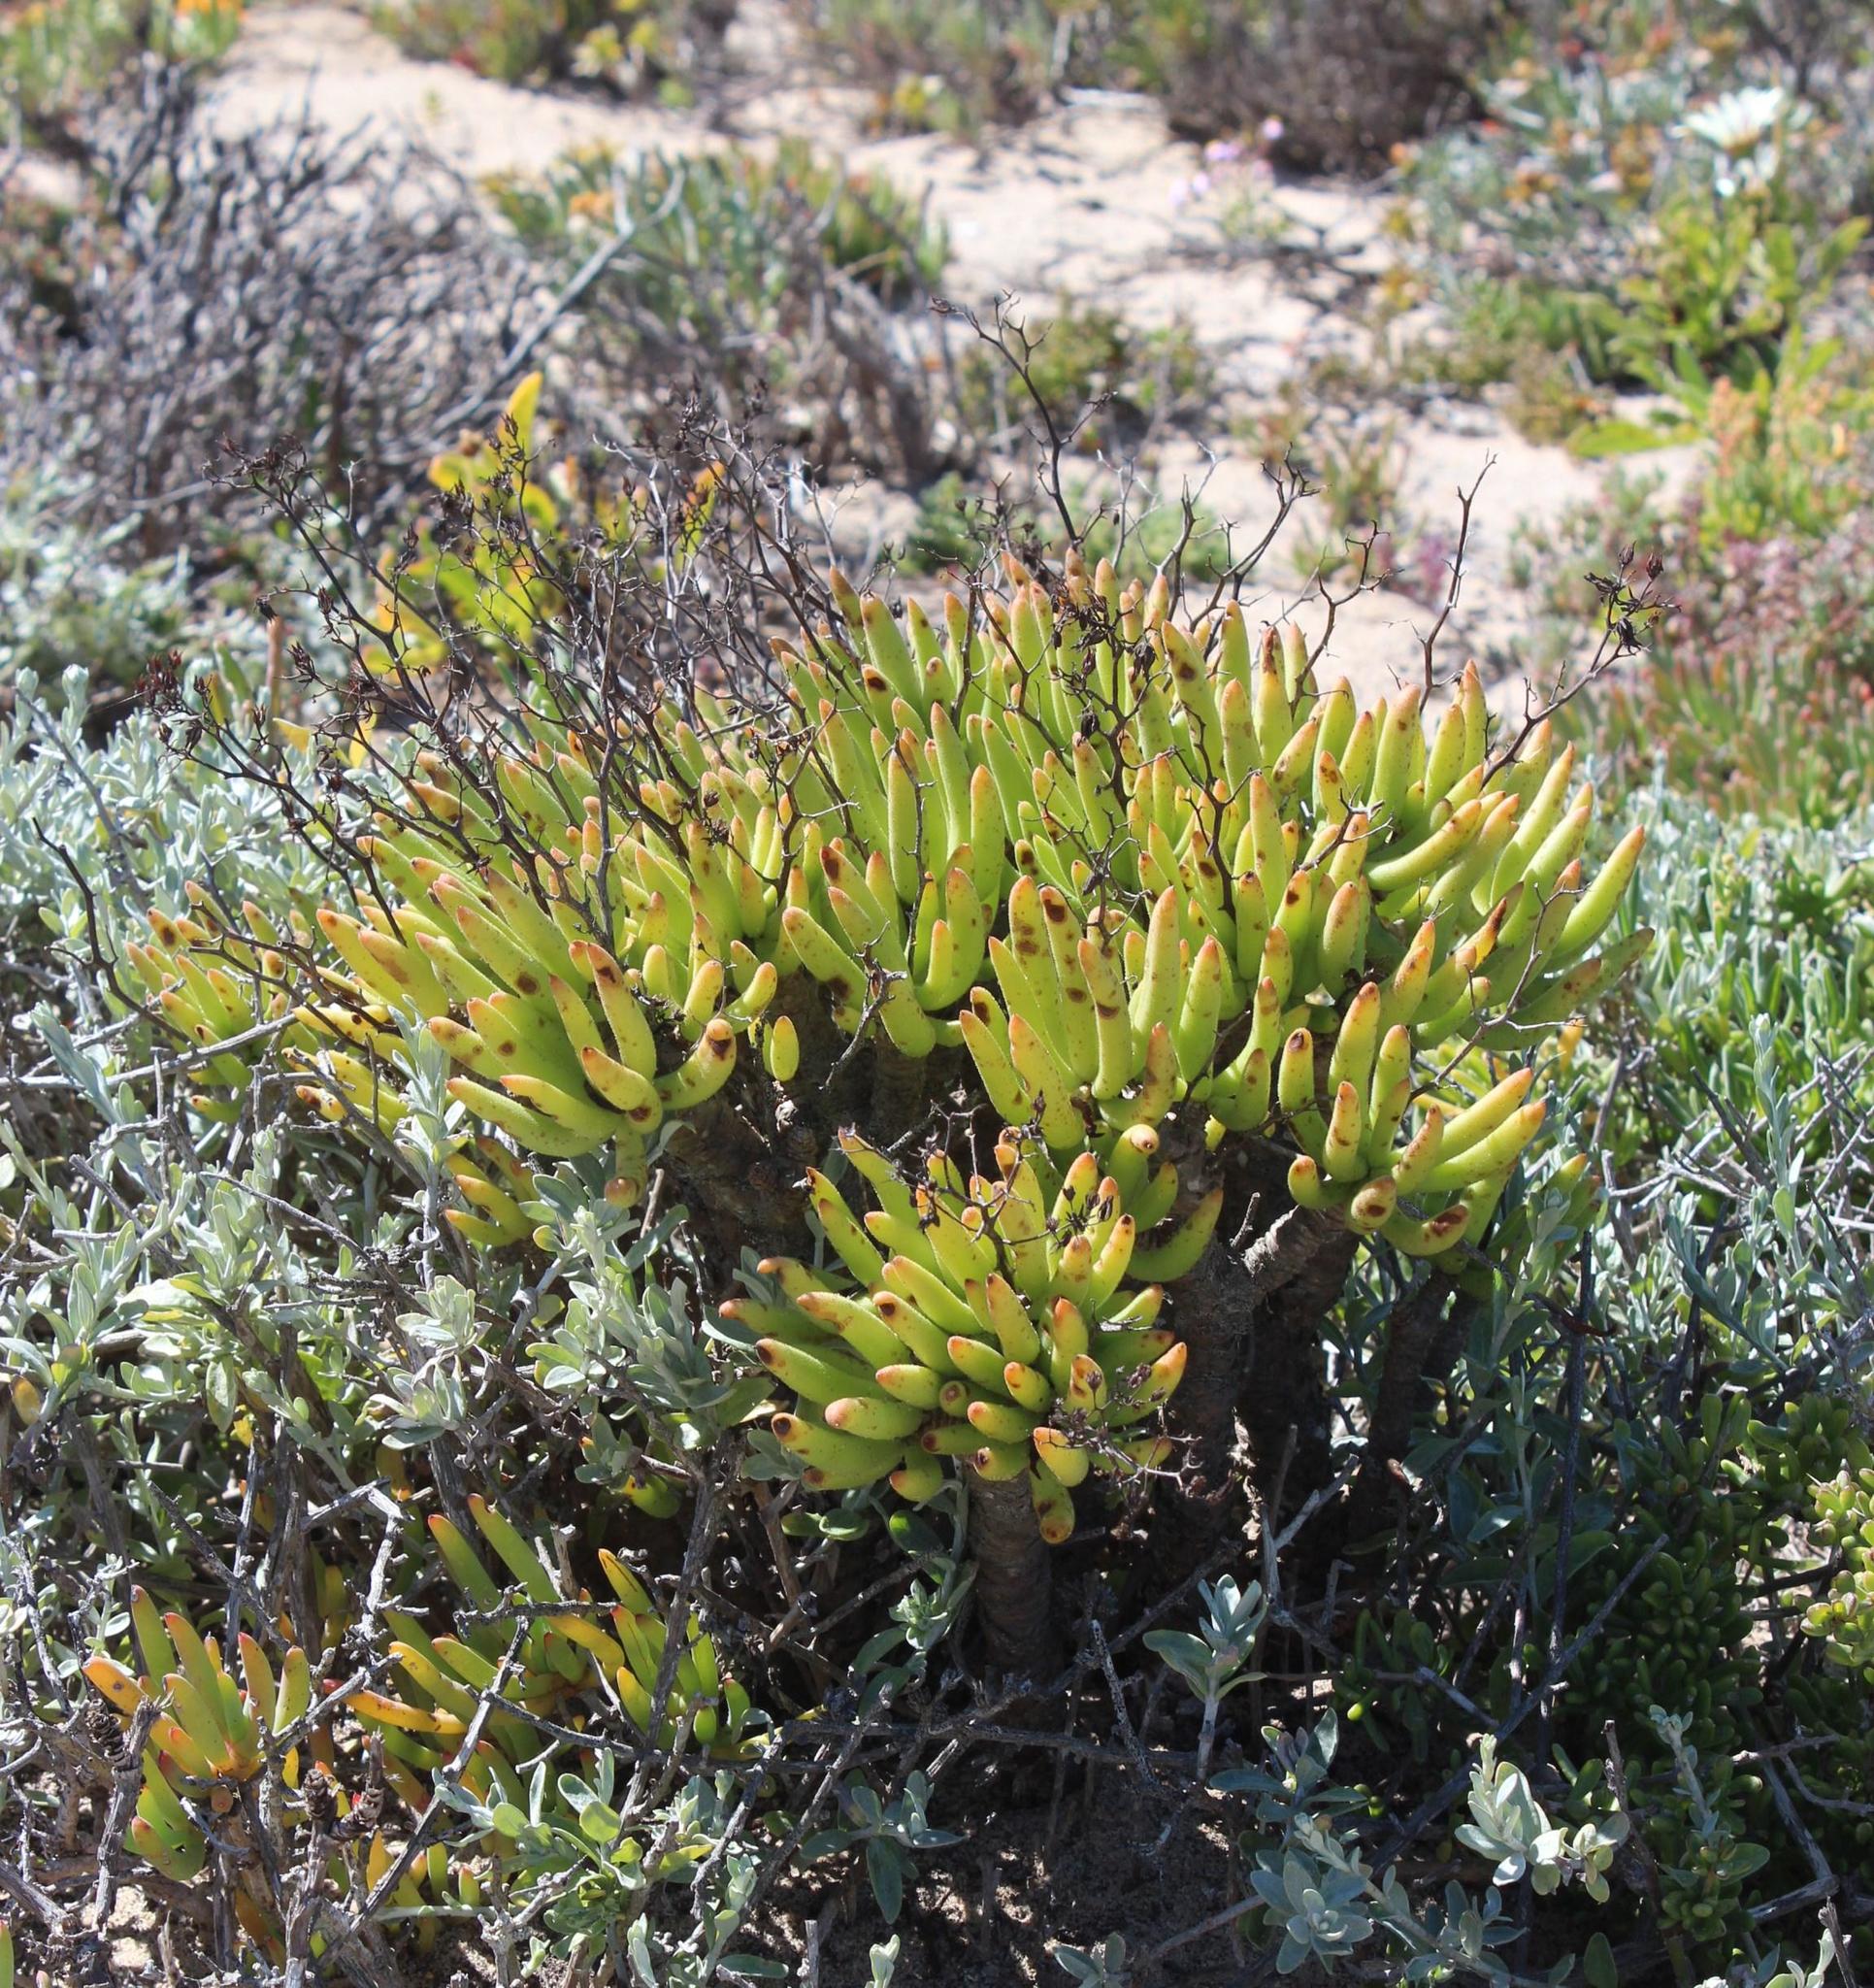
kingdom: Plantae
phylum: Tracheophyta
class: Magnoliopsida
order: Saxifragales
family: Crassulaceae
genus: Tylecodon
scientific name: Tylecodon reticulatus
